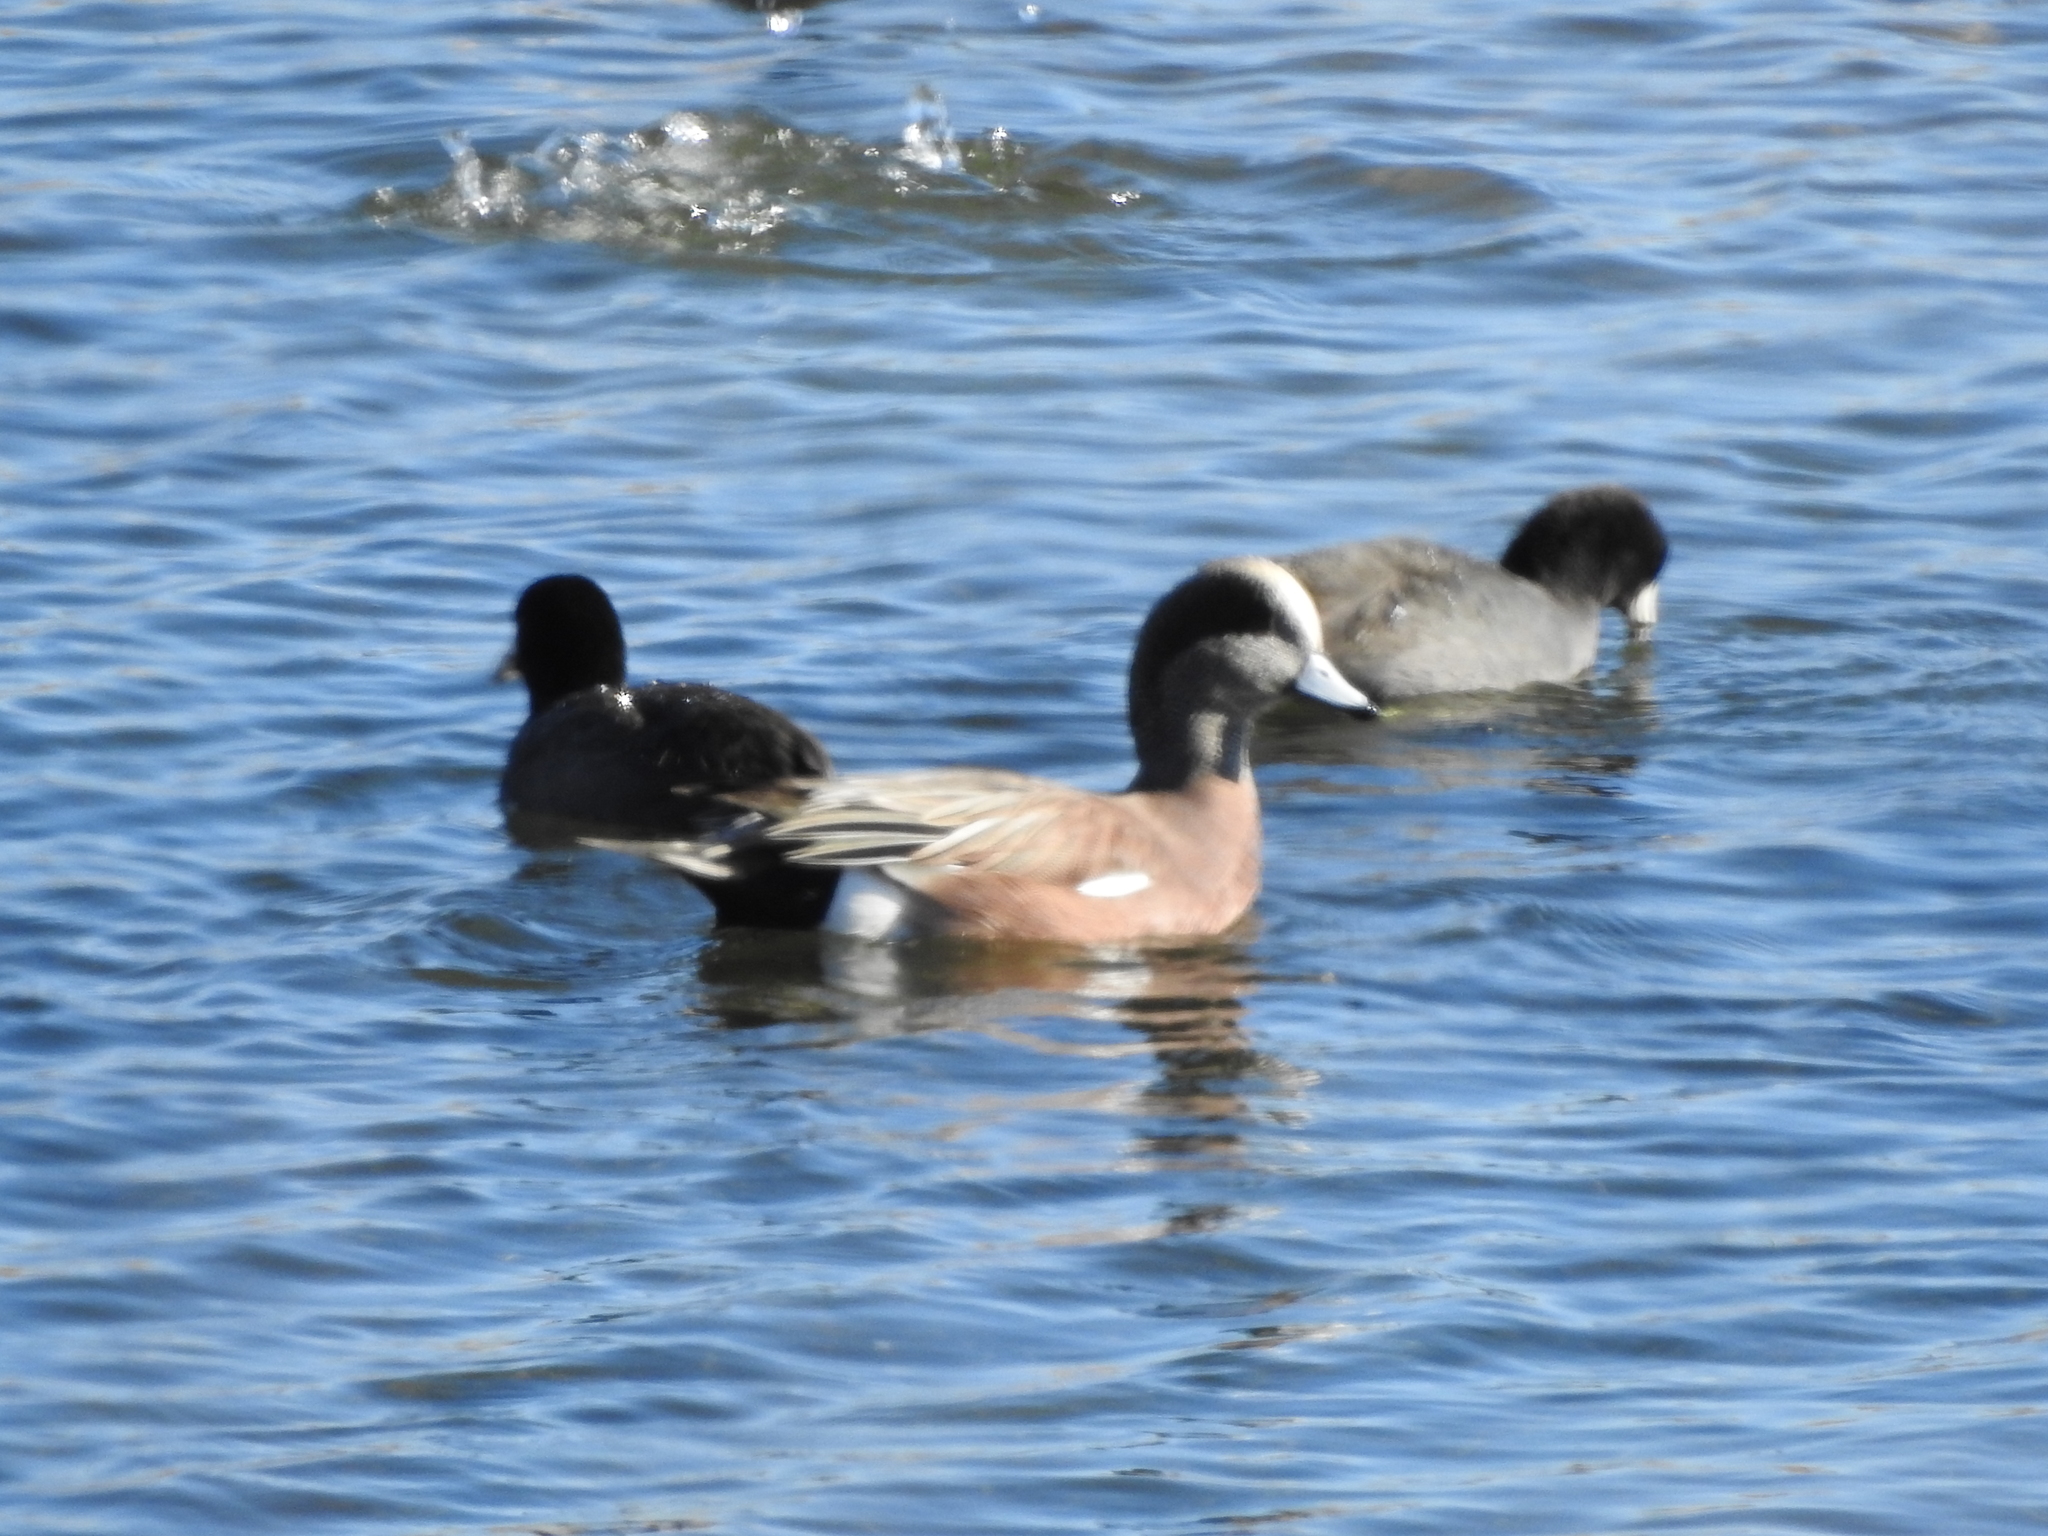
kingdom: Animalia
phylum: Chordata
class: Aves
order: Anseriformes
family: Anatidae
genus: Mareca
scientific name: Mareca americana
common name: American wigeon
